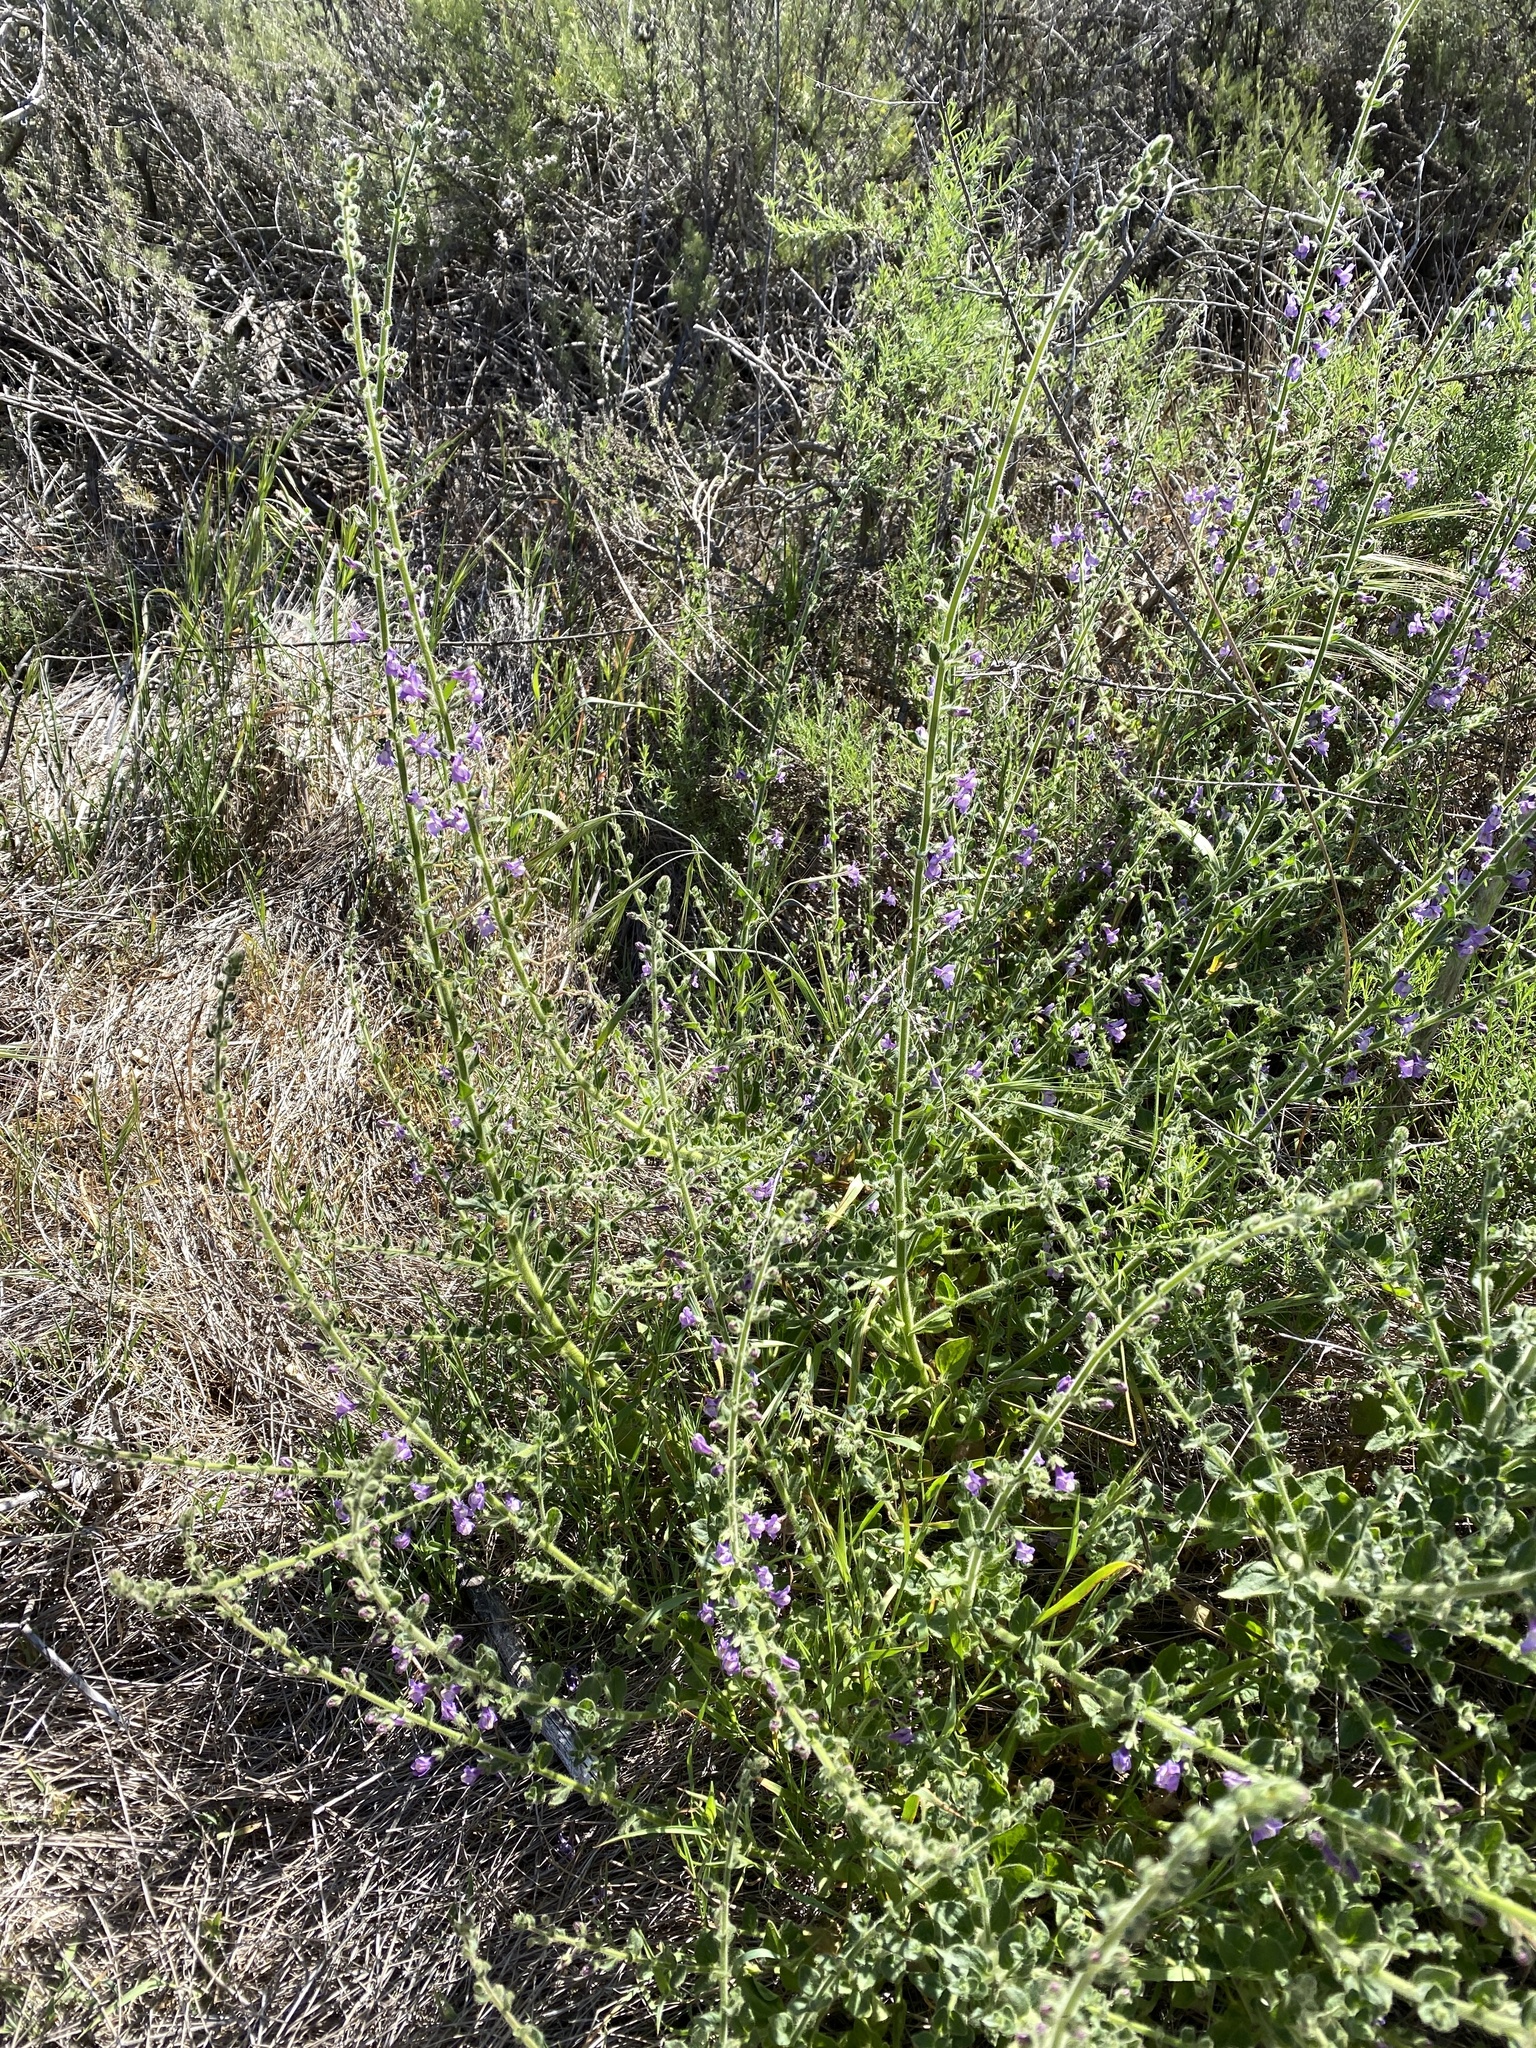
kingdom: Plantae
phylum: Tracheophyta
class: Magnoliopsida
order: Lamiales
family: Plantaginaceae
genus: Sairocarpus
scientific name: Sairocarpus nuttallianus
